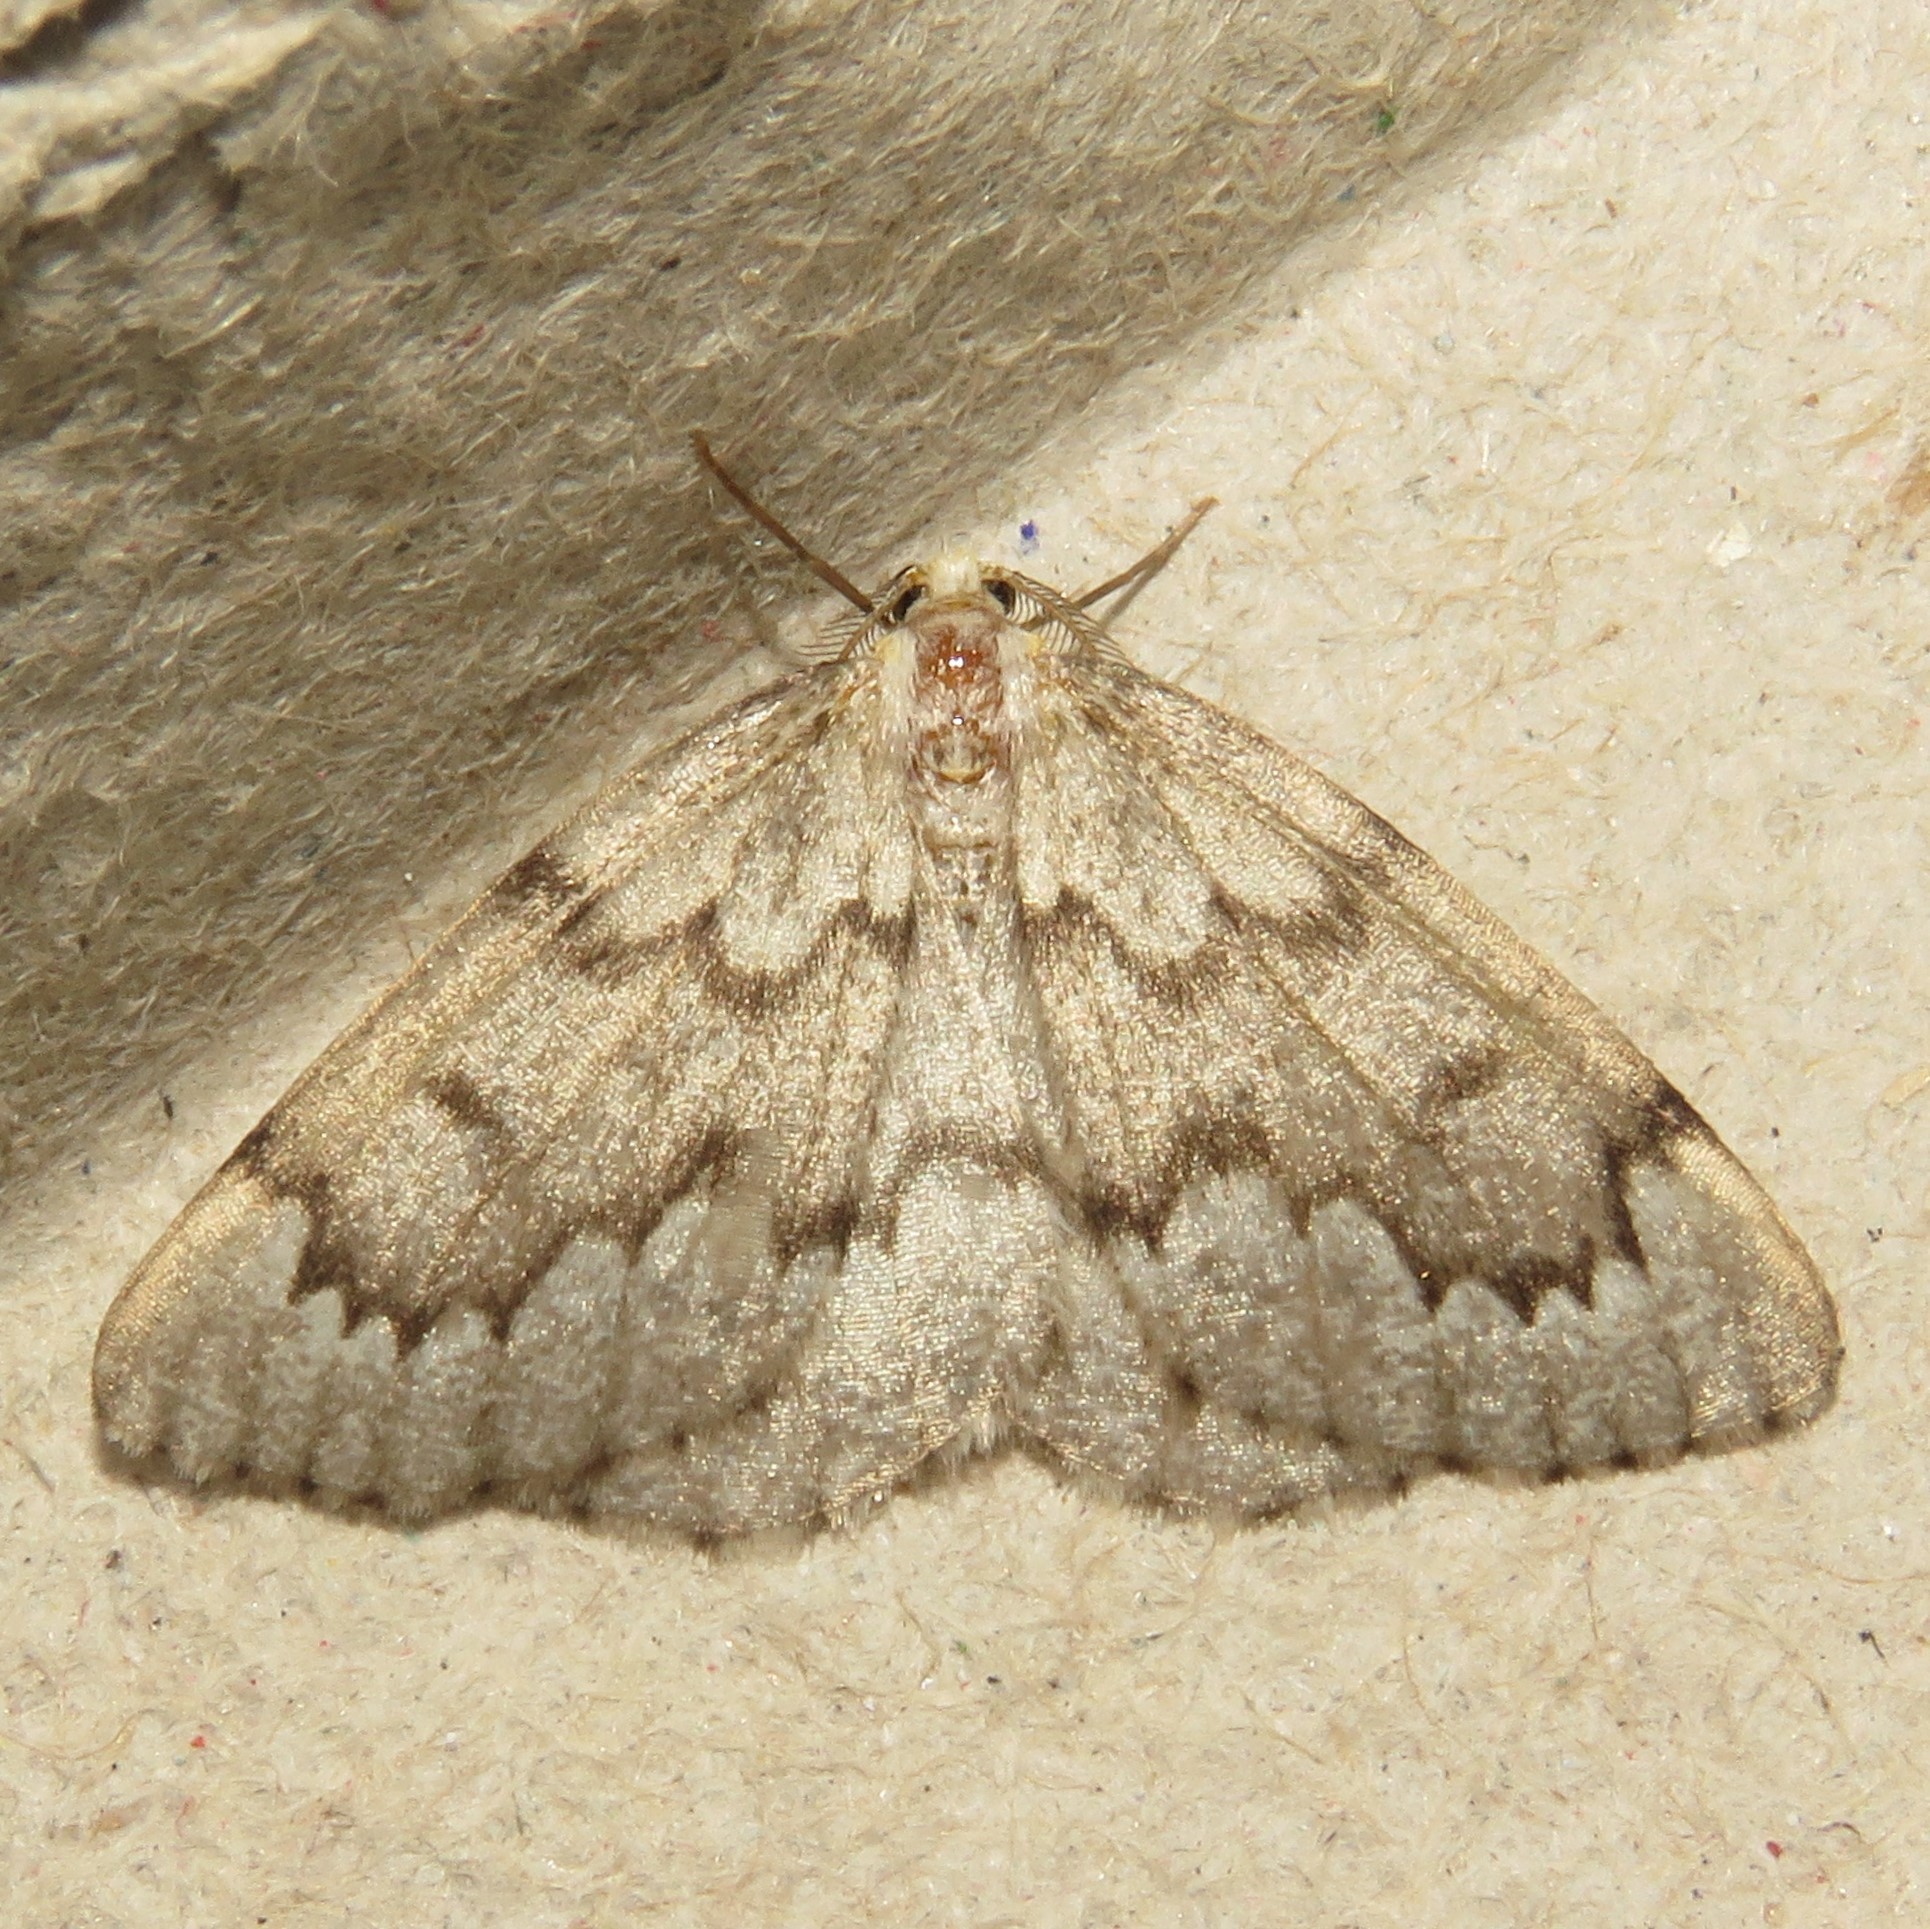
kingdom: Animalia
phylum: Arthropoda
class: Insecta
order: Lepidoptera
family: Geometridae
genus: Nepytia
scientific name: Nepytia canosaria
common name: False hemlock looper
